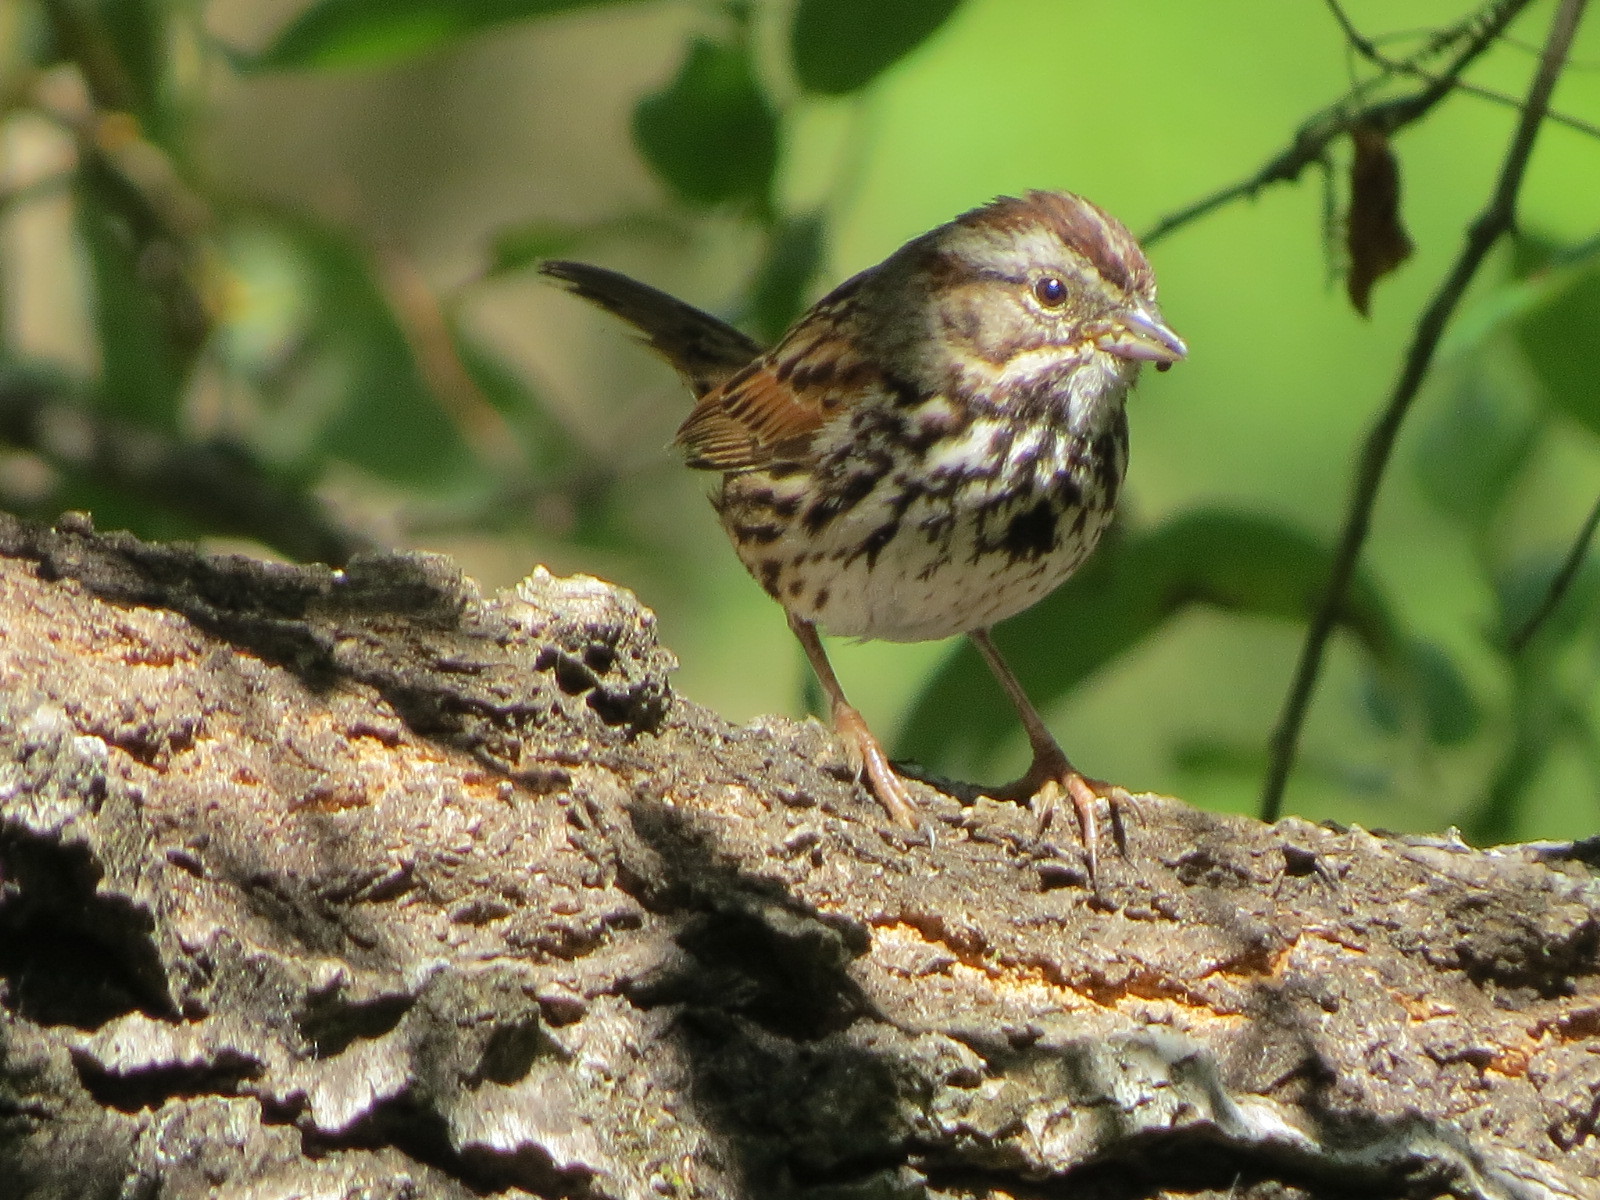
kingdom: Animalia
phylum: Chordata
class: Aves
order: Passeriformes
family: Passerellidae
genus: Melospiza
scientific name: Melospiza melodia
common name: Song sparrow
